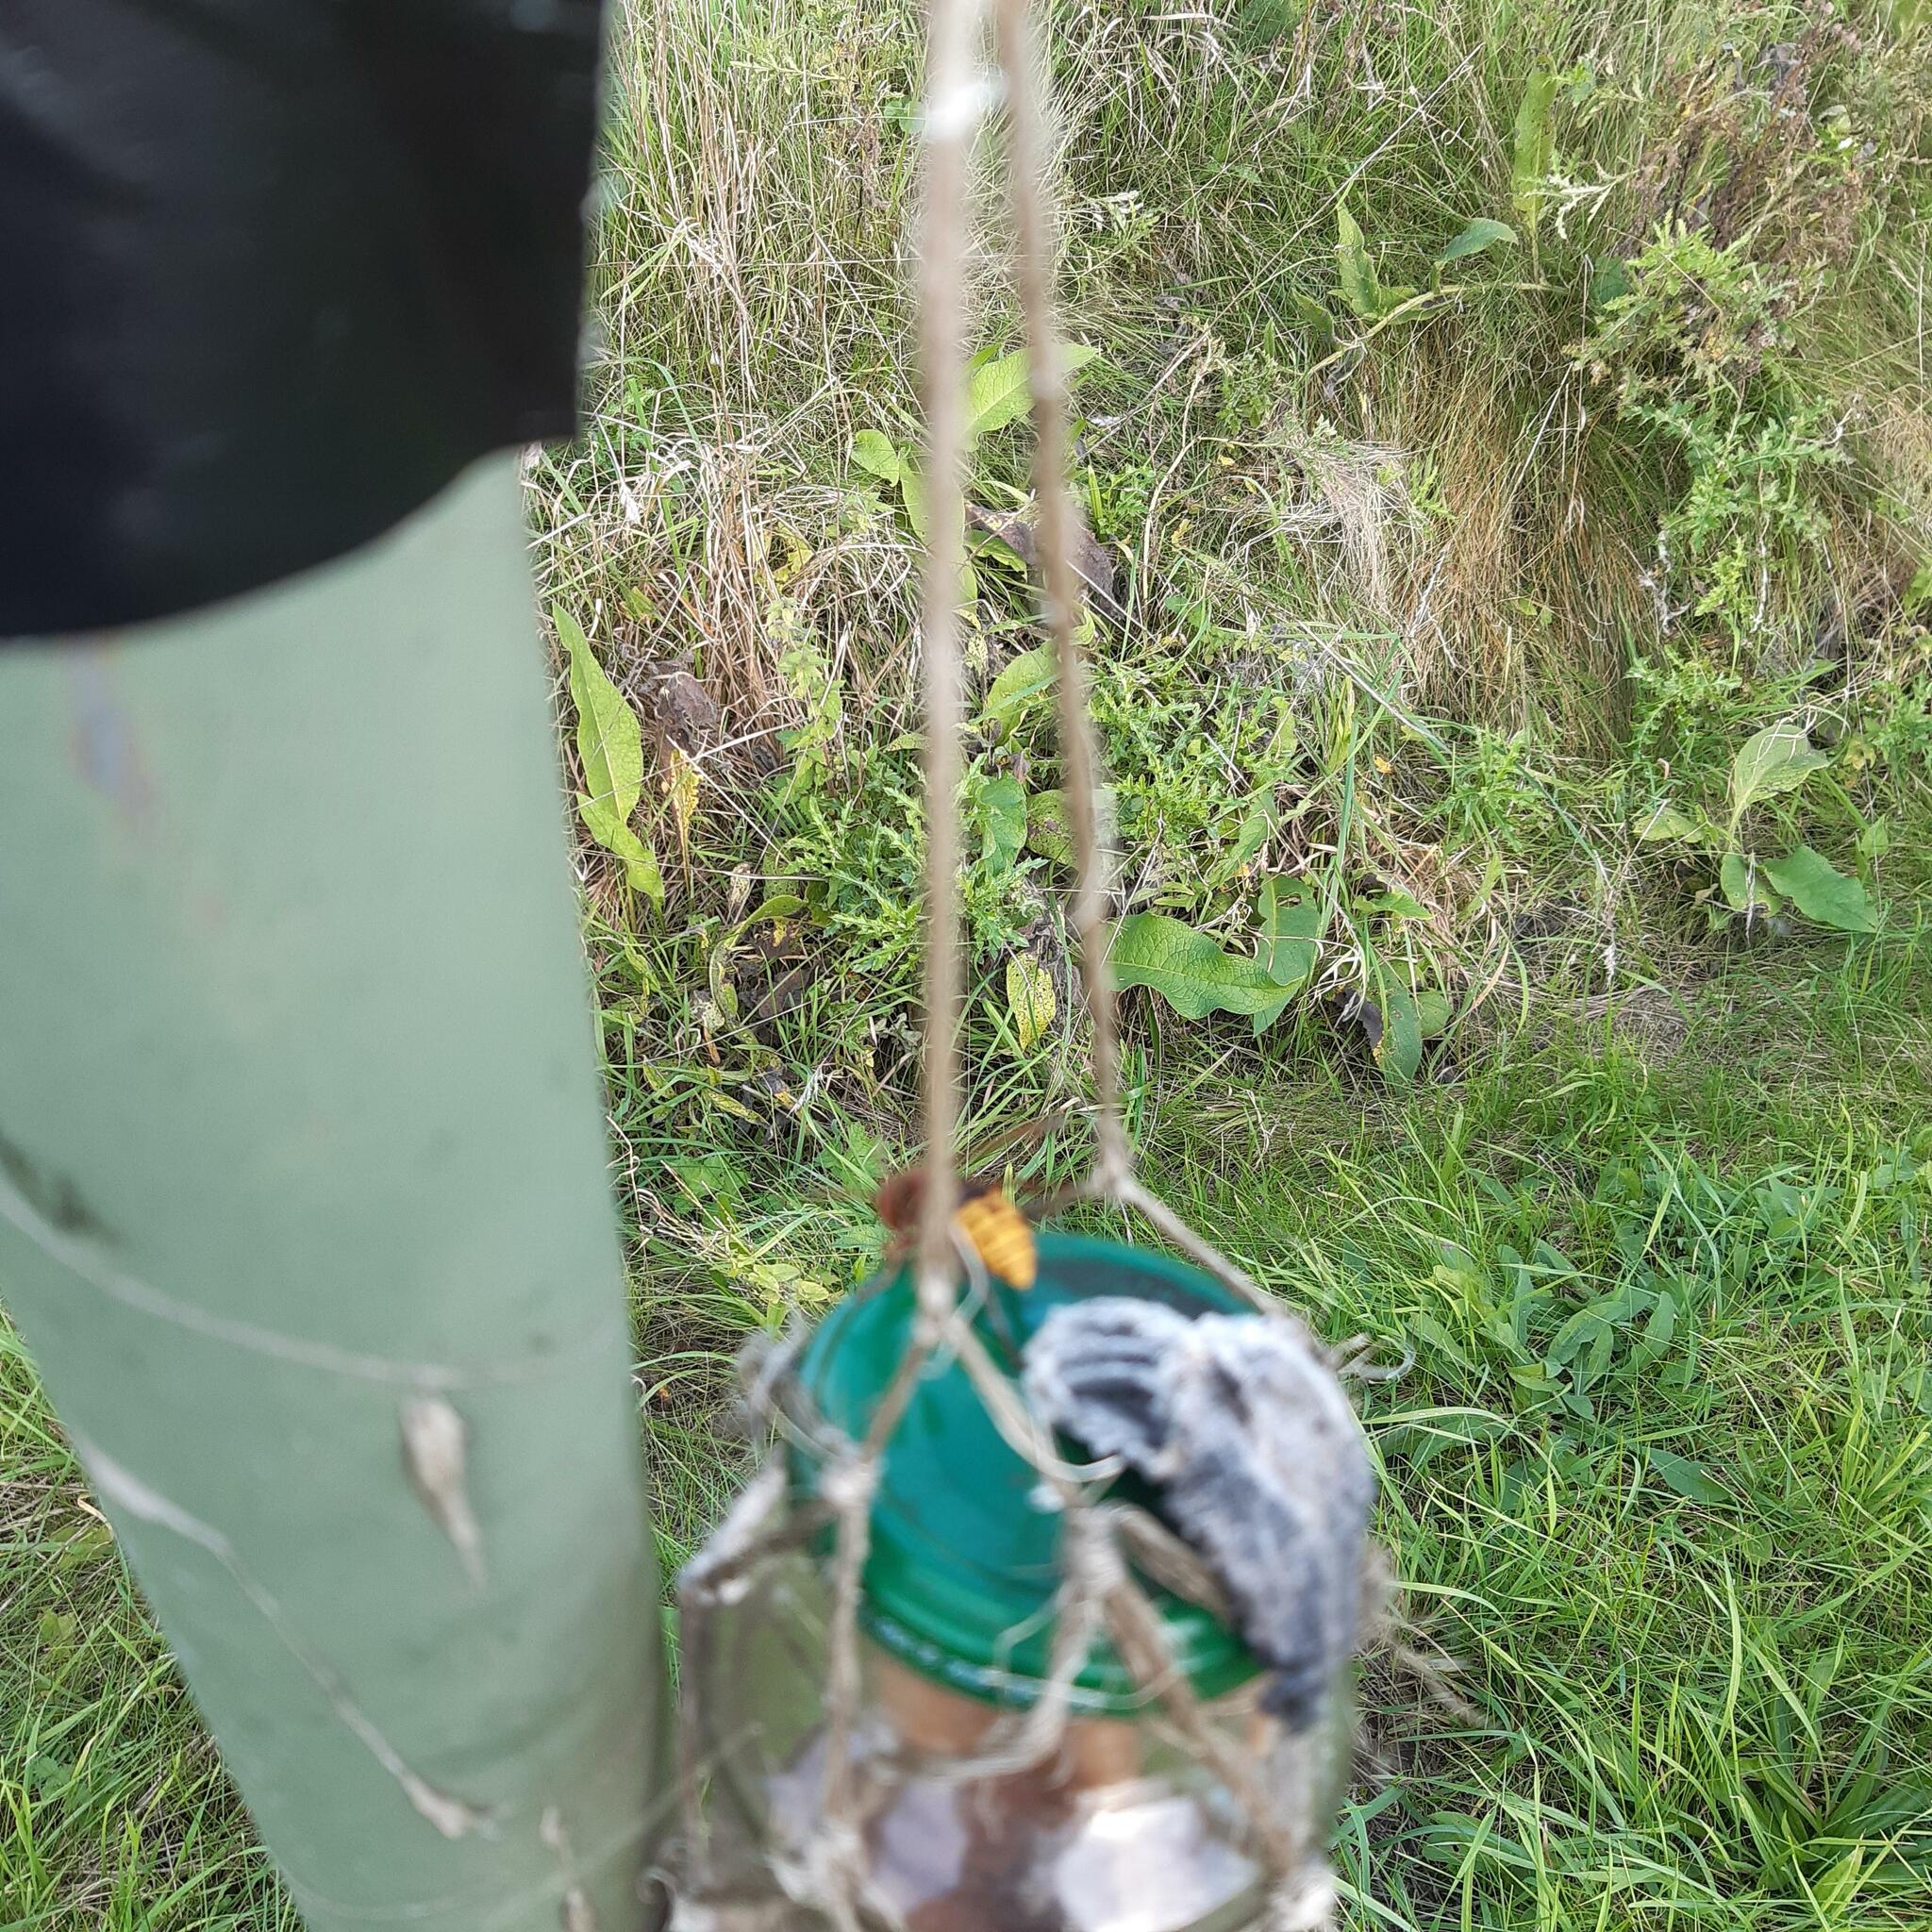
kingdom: Animalia
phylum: Arthropoda
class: Insecta
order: Hymenoptera
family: Vespidae
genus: Vespa
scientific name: Vespa crabro
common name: Hornet
